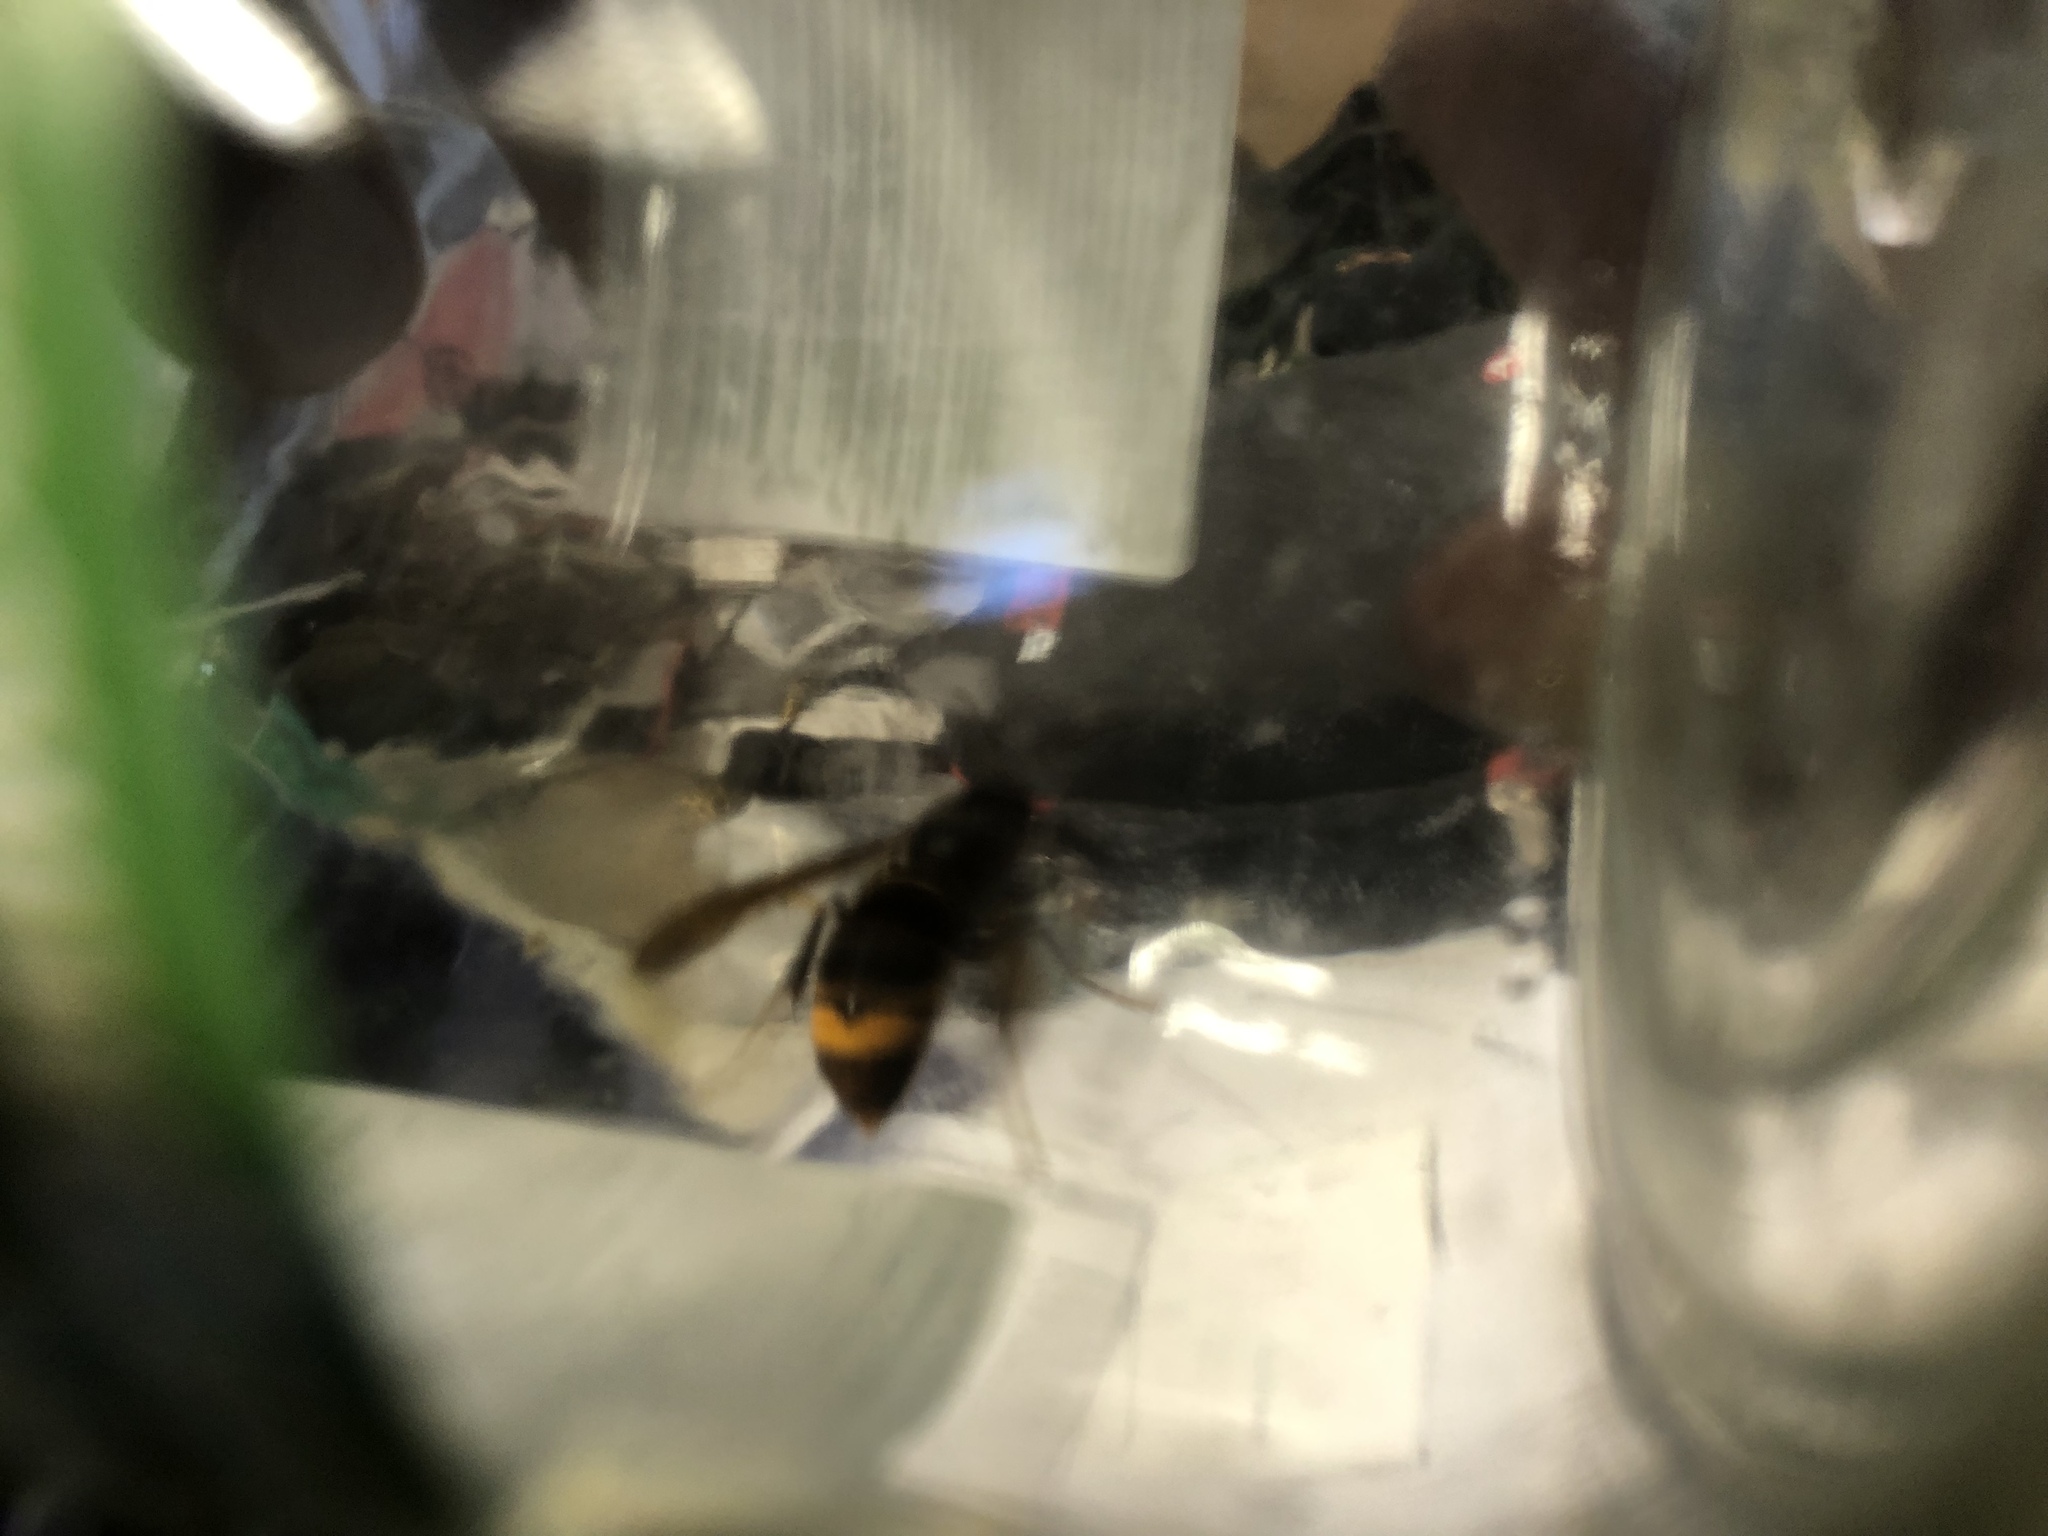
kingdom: Animalia
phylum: Arthropoda
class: Insecta
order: Hymenoptera
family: Vespidae
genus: Vespa
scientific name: Vespa velutina
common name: Asian hornet
